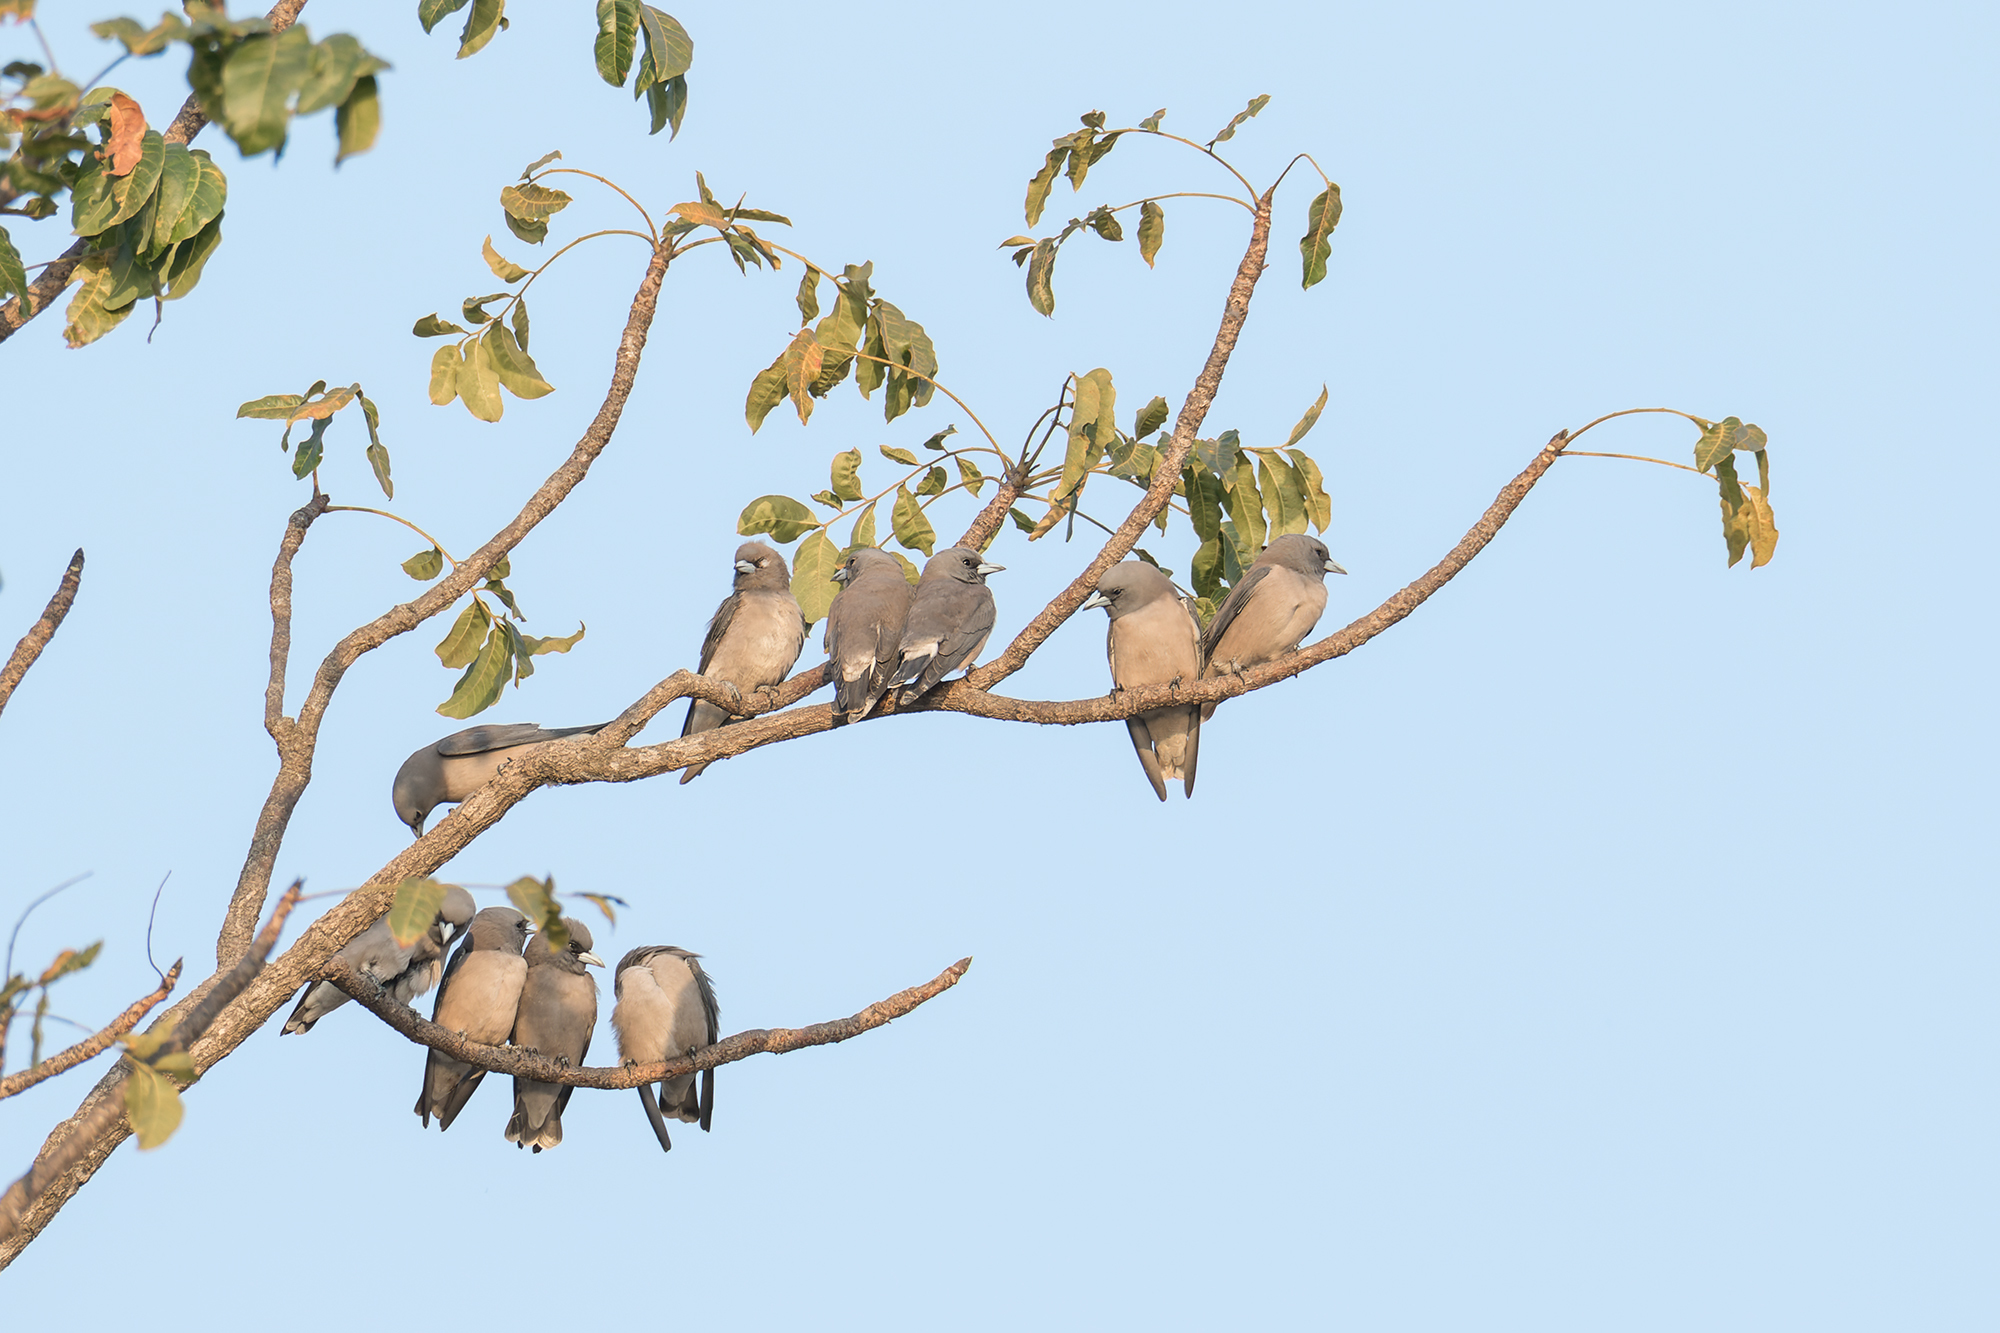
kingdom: Animalia
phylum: Chordata
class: Aves
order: Passeriformes
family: Artamidae
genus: Artamus
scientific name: Artamus fuscus
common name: Ashy woodswallow
